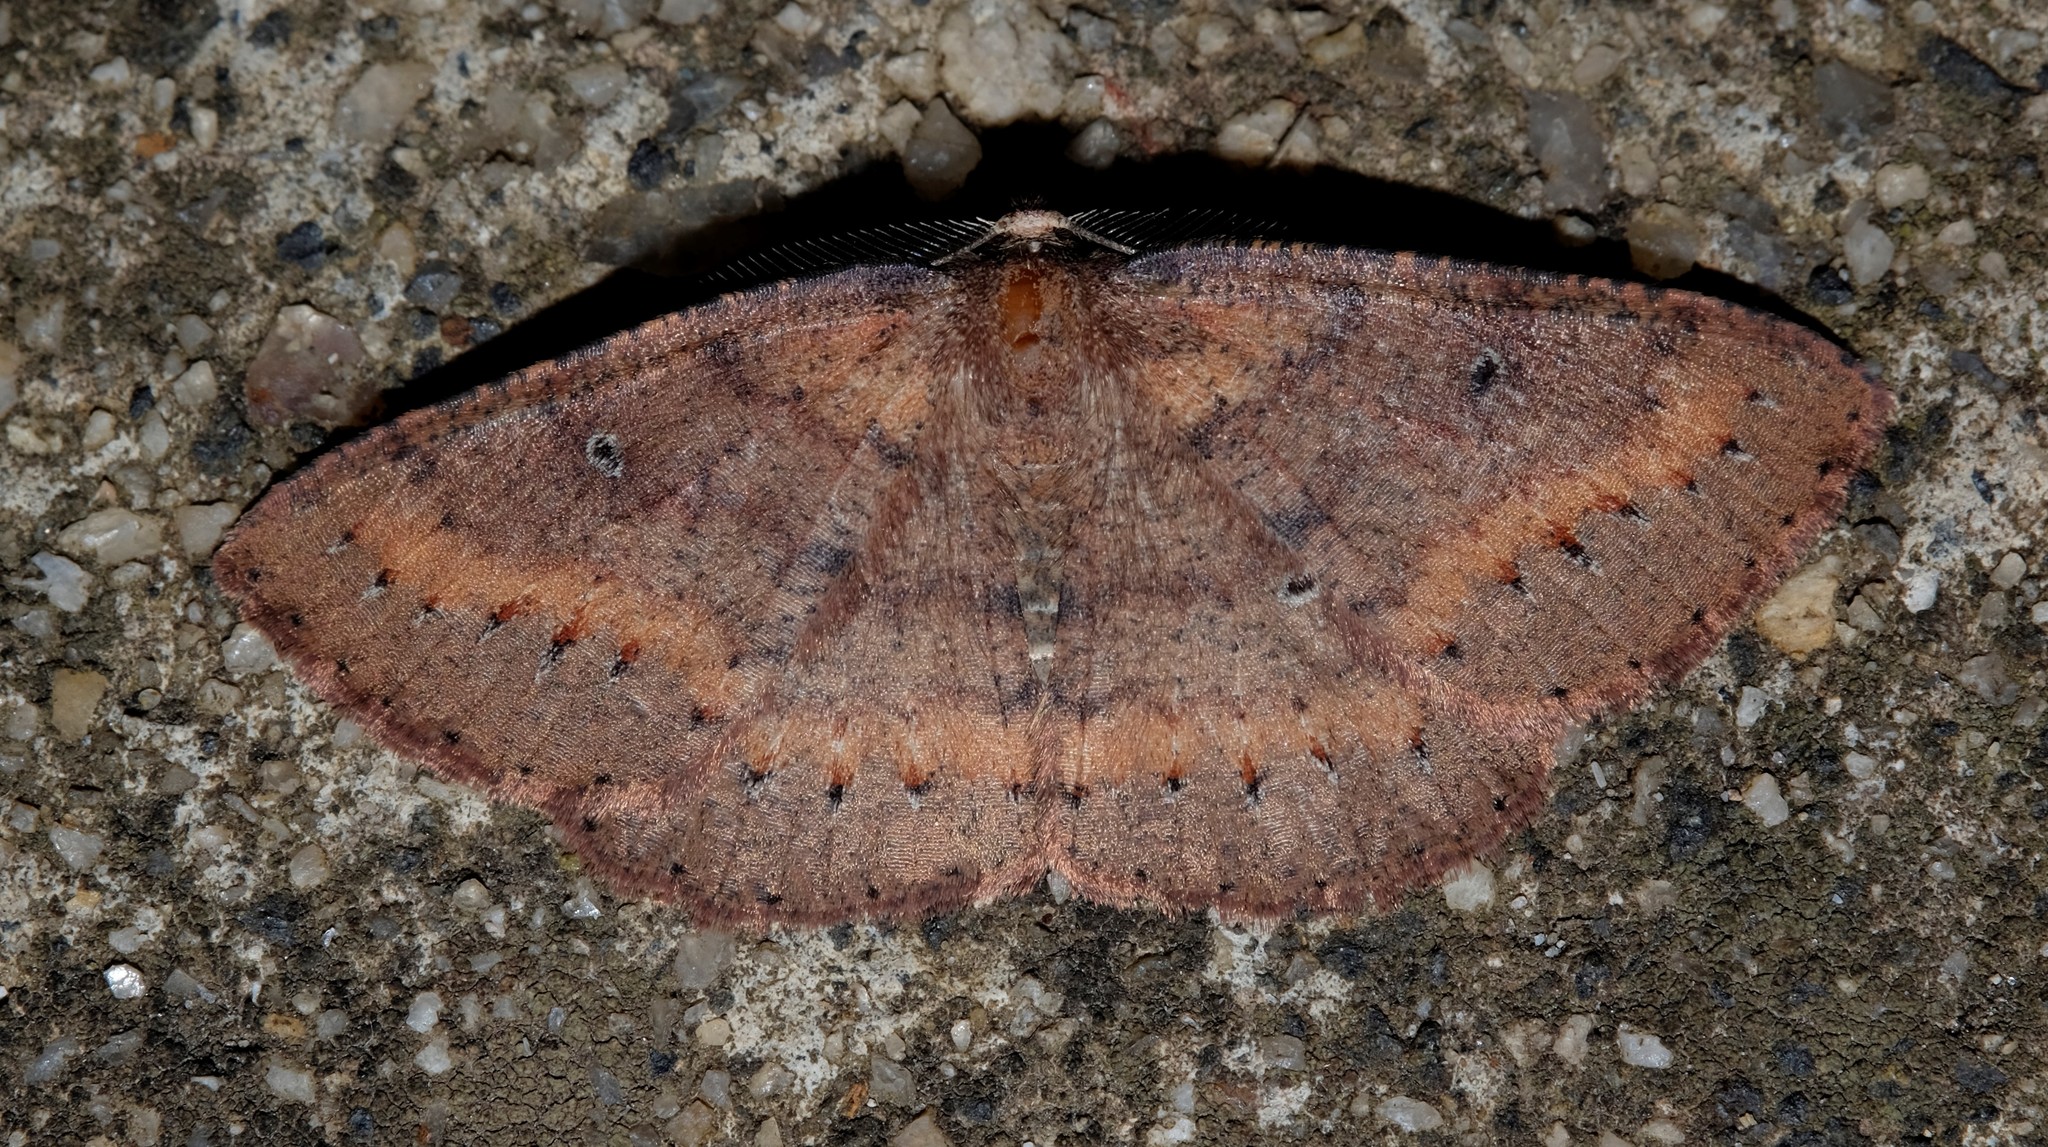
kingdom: Animalia
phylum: Arthropoda
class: Insecta
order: Lepidoptera
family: Geometridae
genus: Casbia
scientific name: Casbia melanops
